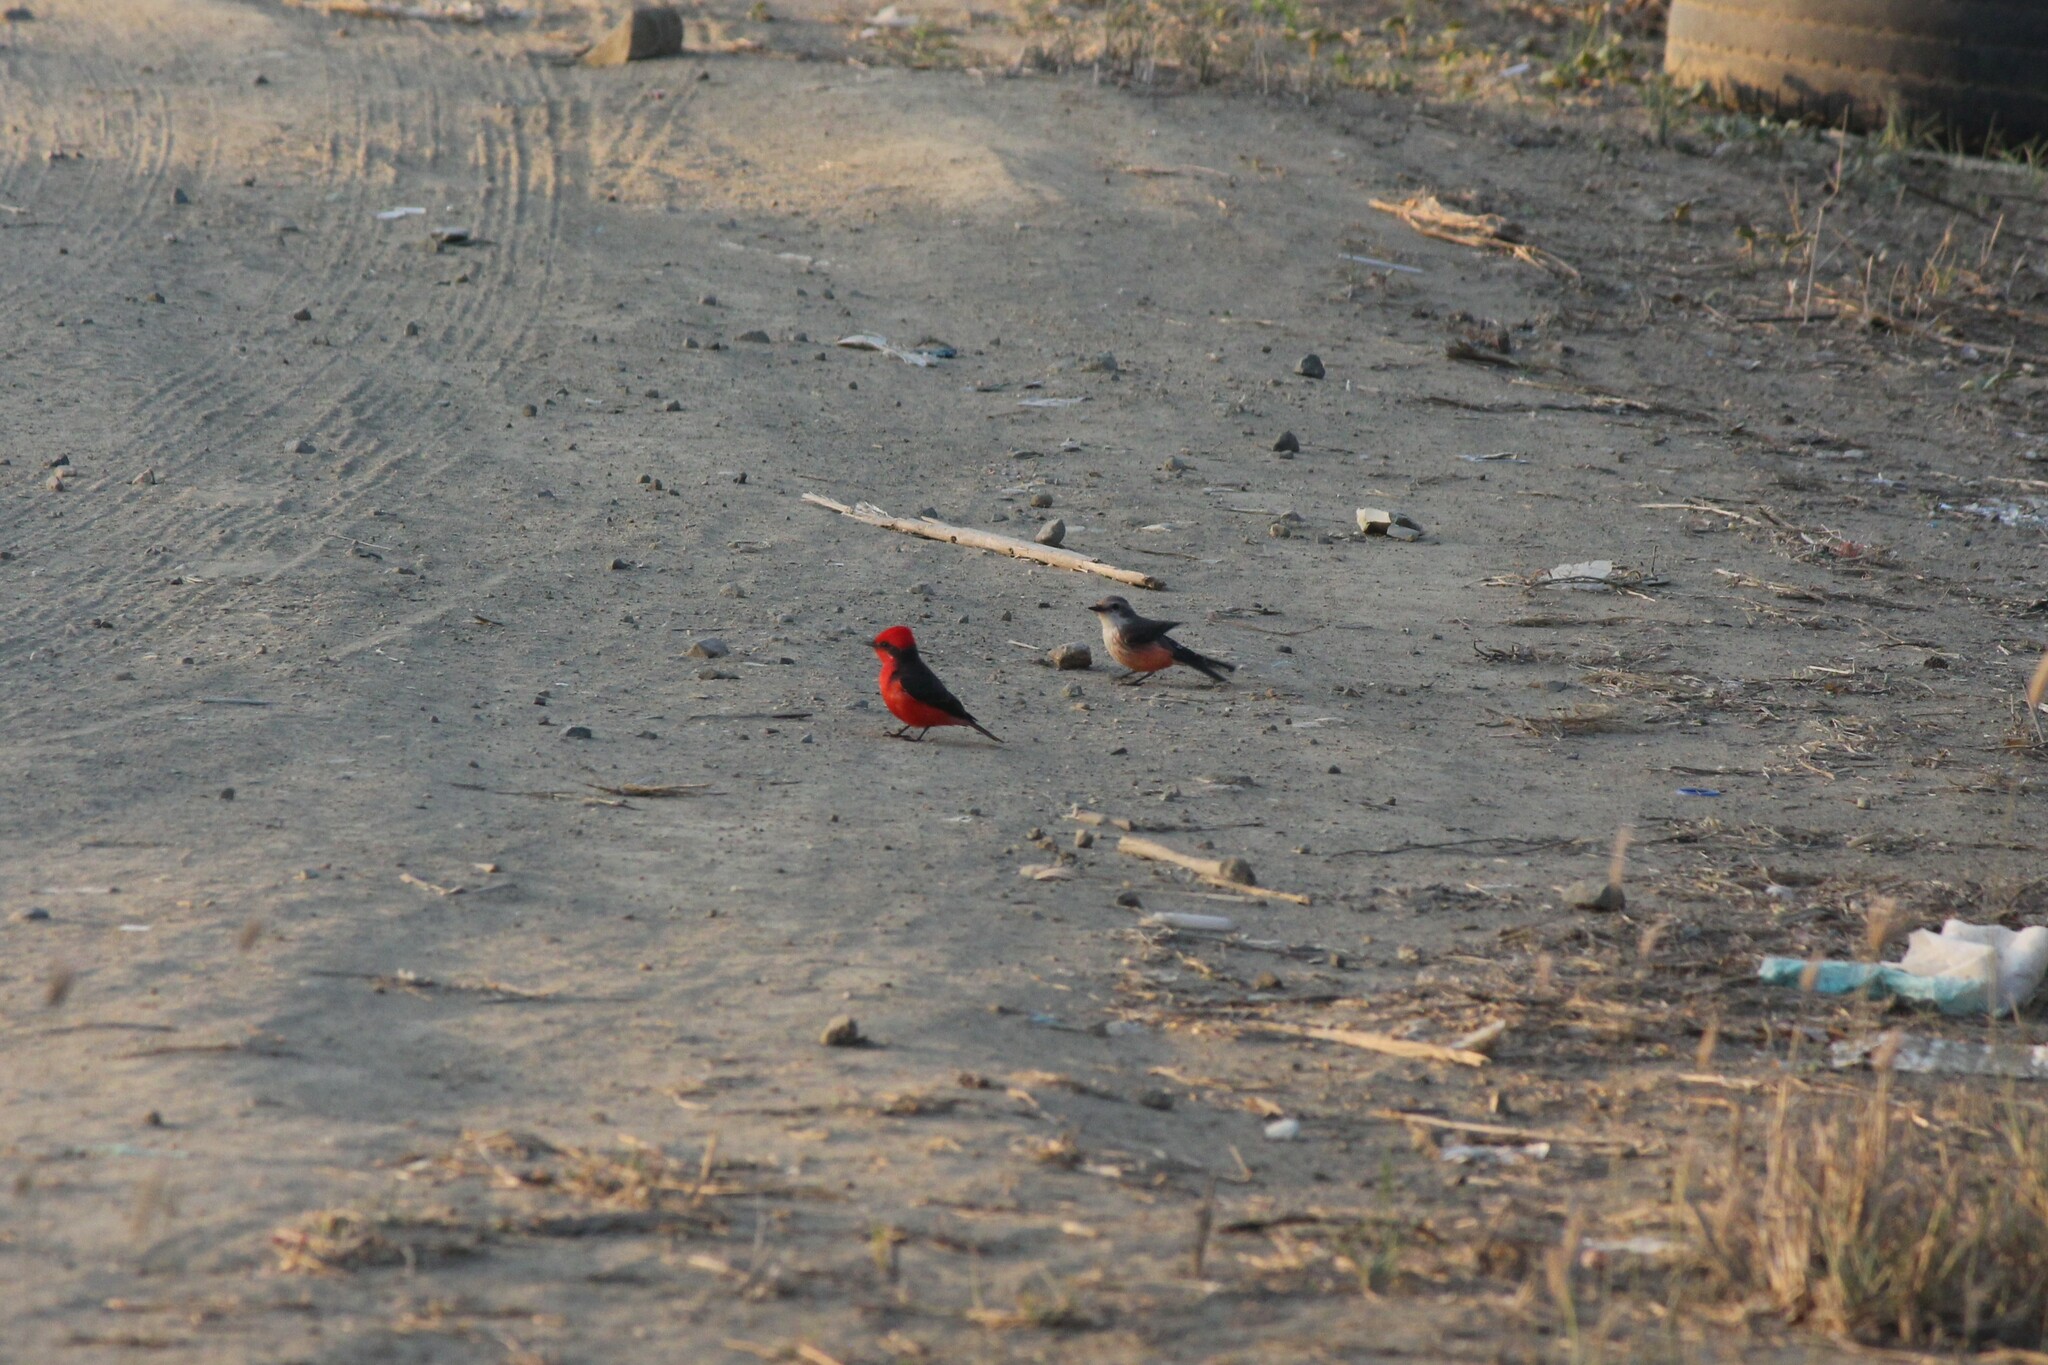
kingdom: Animalia
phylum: Chordata
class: Aves
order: Passeriformes
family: Tyrannidae
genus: Pyrocephalus
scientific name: Pyrocephalus rubinus
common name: Vermilion flycatcher
